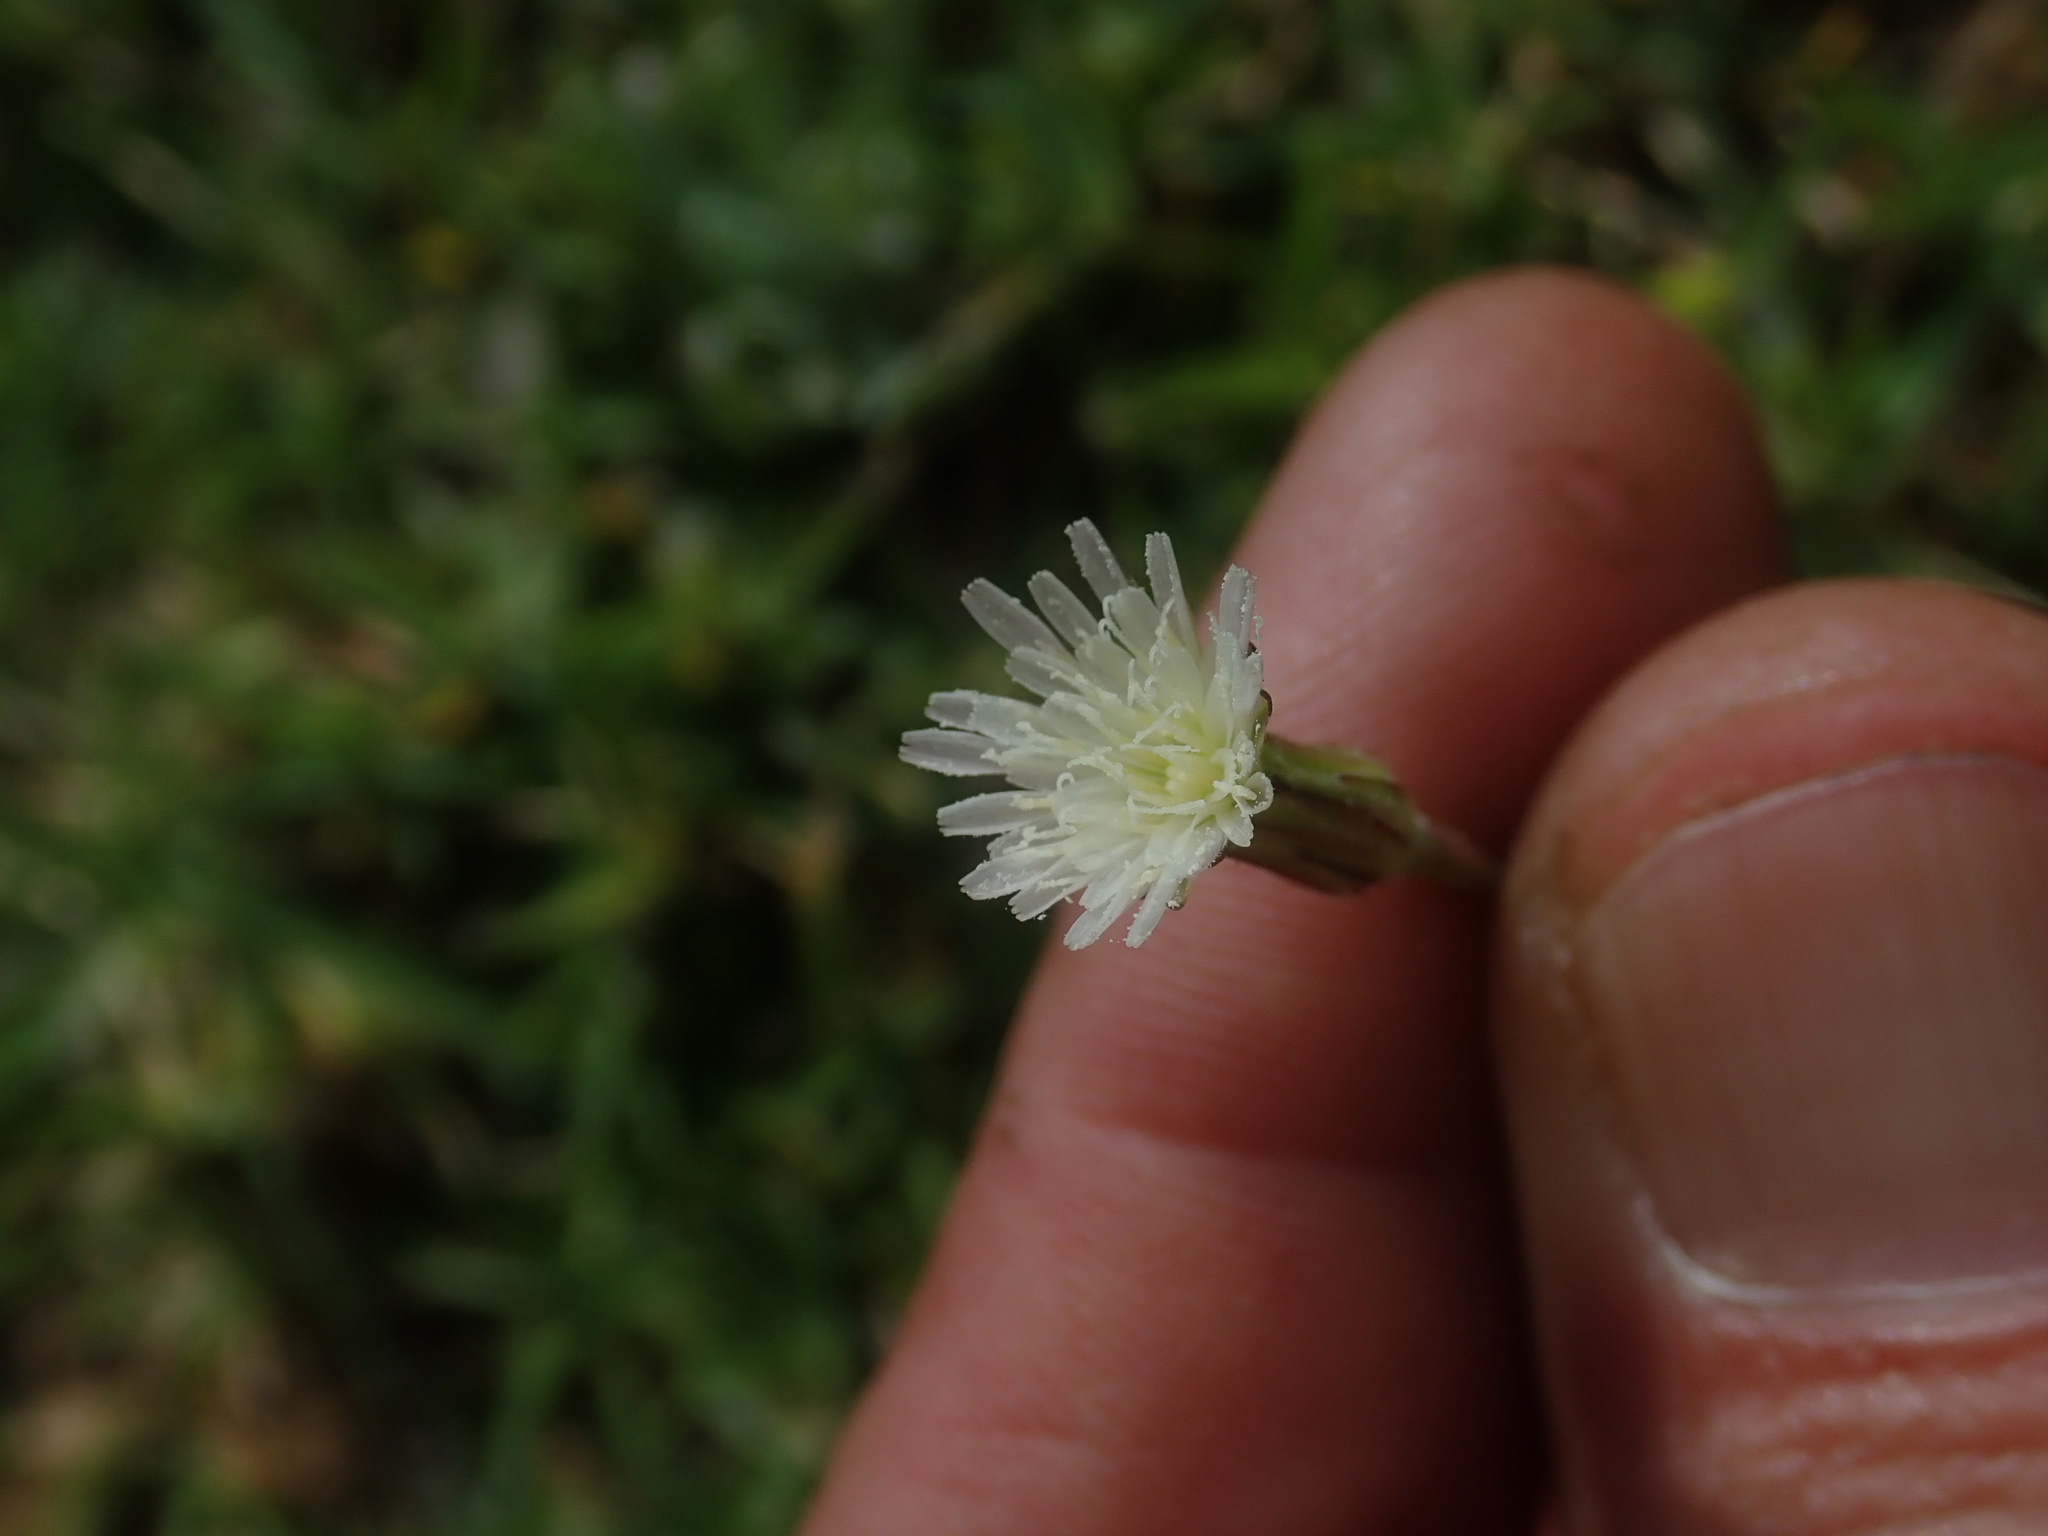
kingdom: Plantae
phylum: Tracheophyta
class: Magnoliopsida
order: Asterales
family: Asteraceae
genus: Hypochaeris
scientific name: Hypochaeris albiflora
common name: White flatweed
